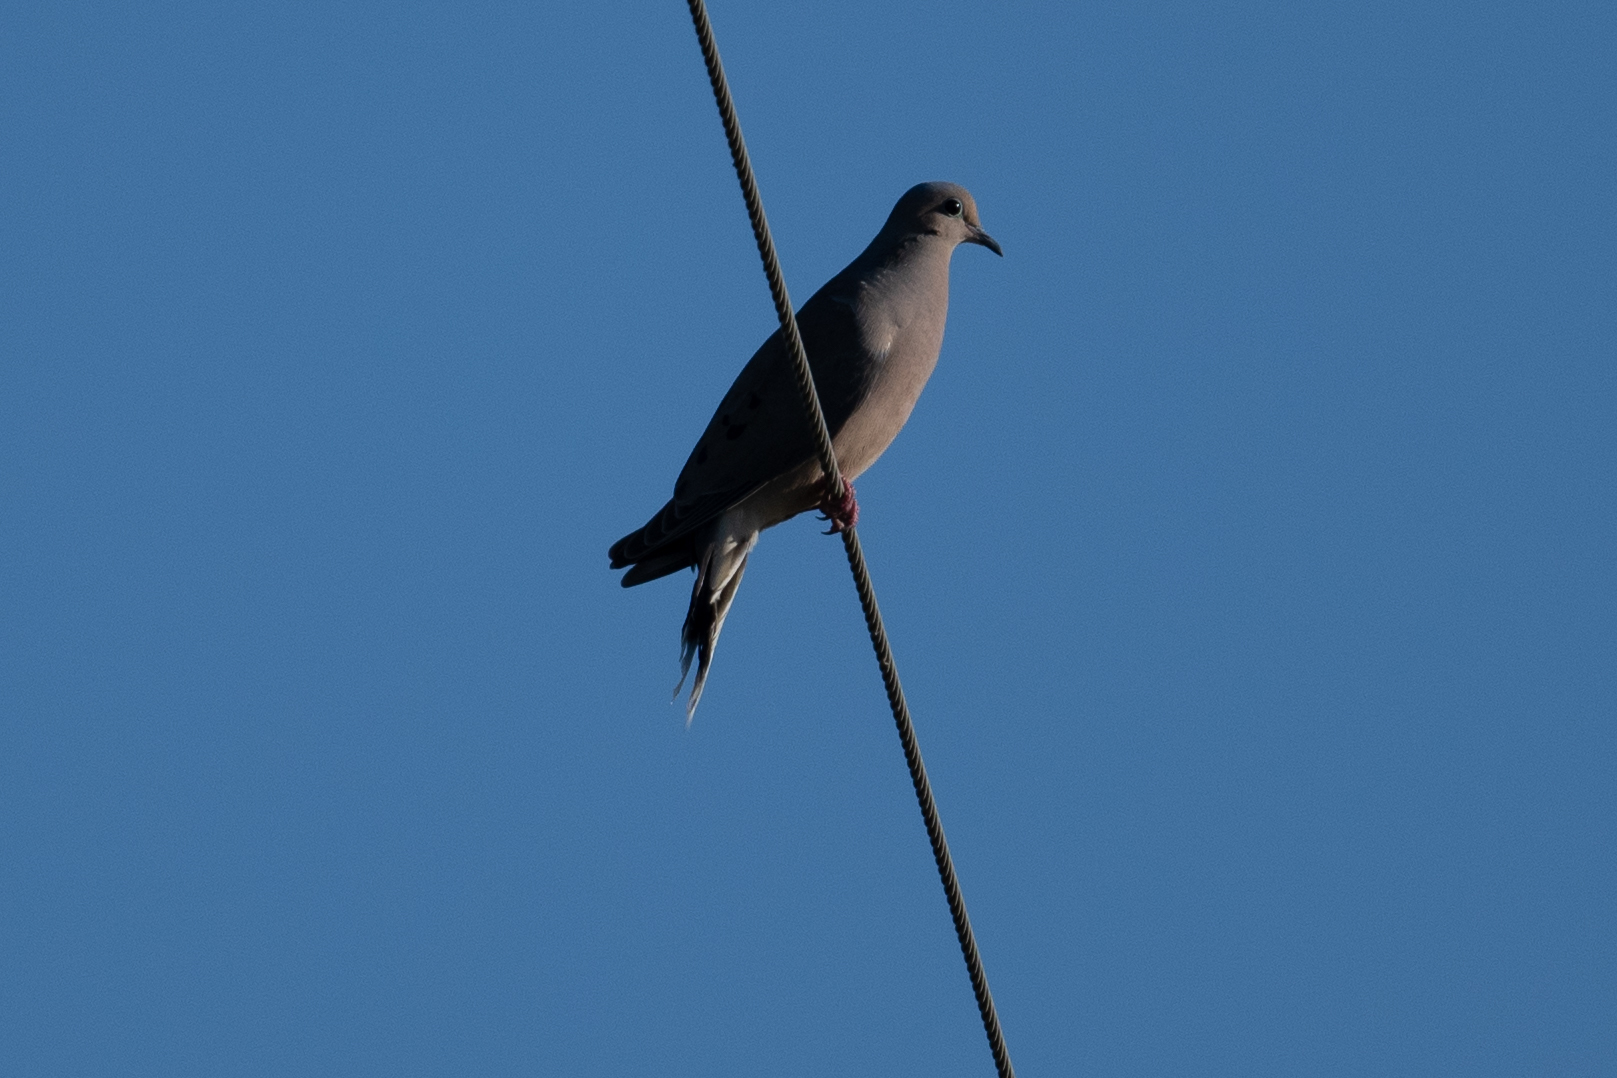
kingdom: Animalia
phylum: Chordata
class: Aves
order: Columbiformes
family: Columbidae
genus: Zenaida
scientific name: Zenaida macroura
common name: Mourning dove
